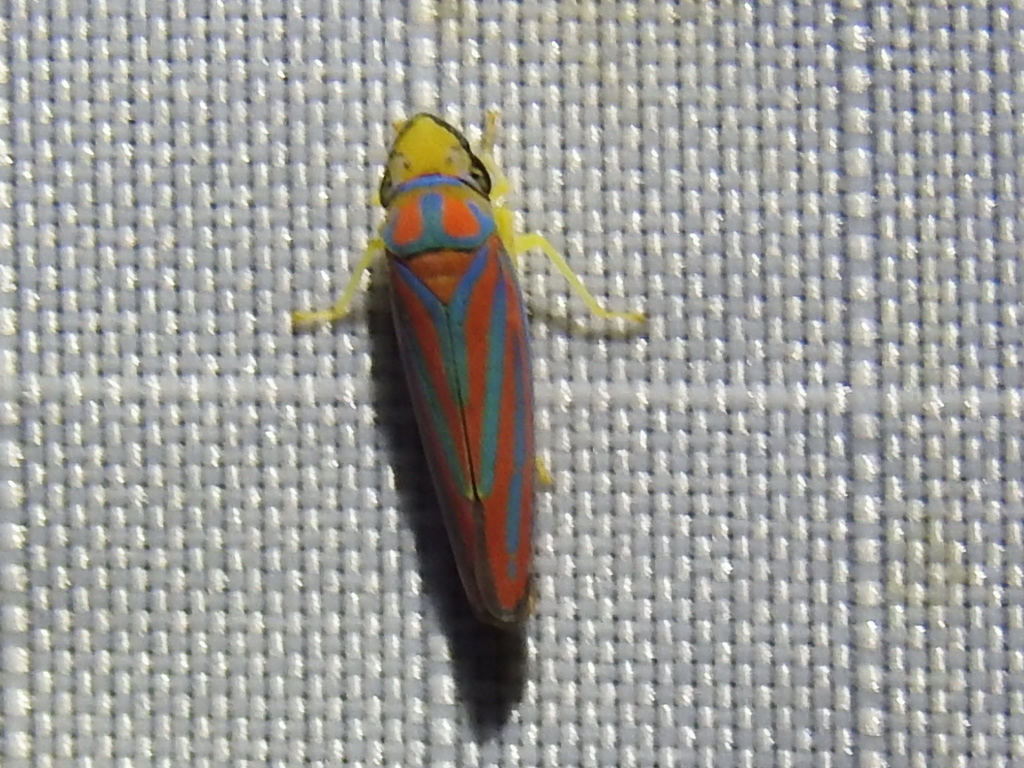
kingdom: Animalia
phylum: Arthropoda
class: Insecta
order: Hemiptera
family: Cicadellidae
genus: Graphocephala
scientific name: Graphocephala coccinea
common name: Candy-striped leafhopper
